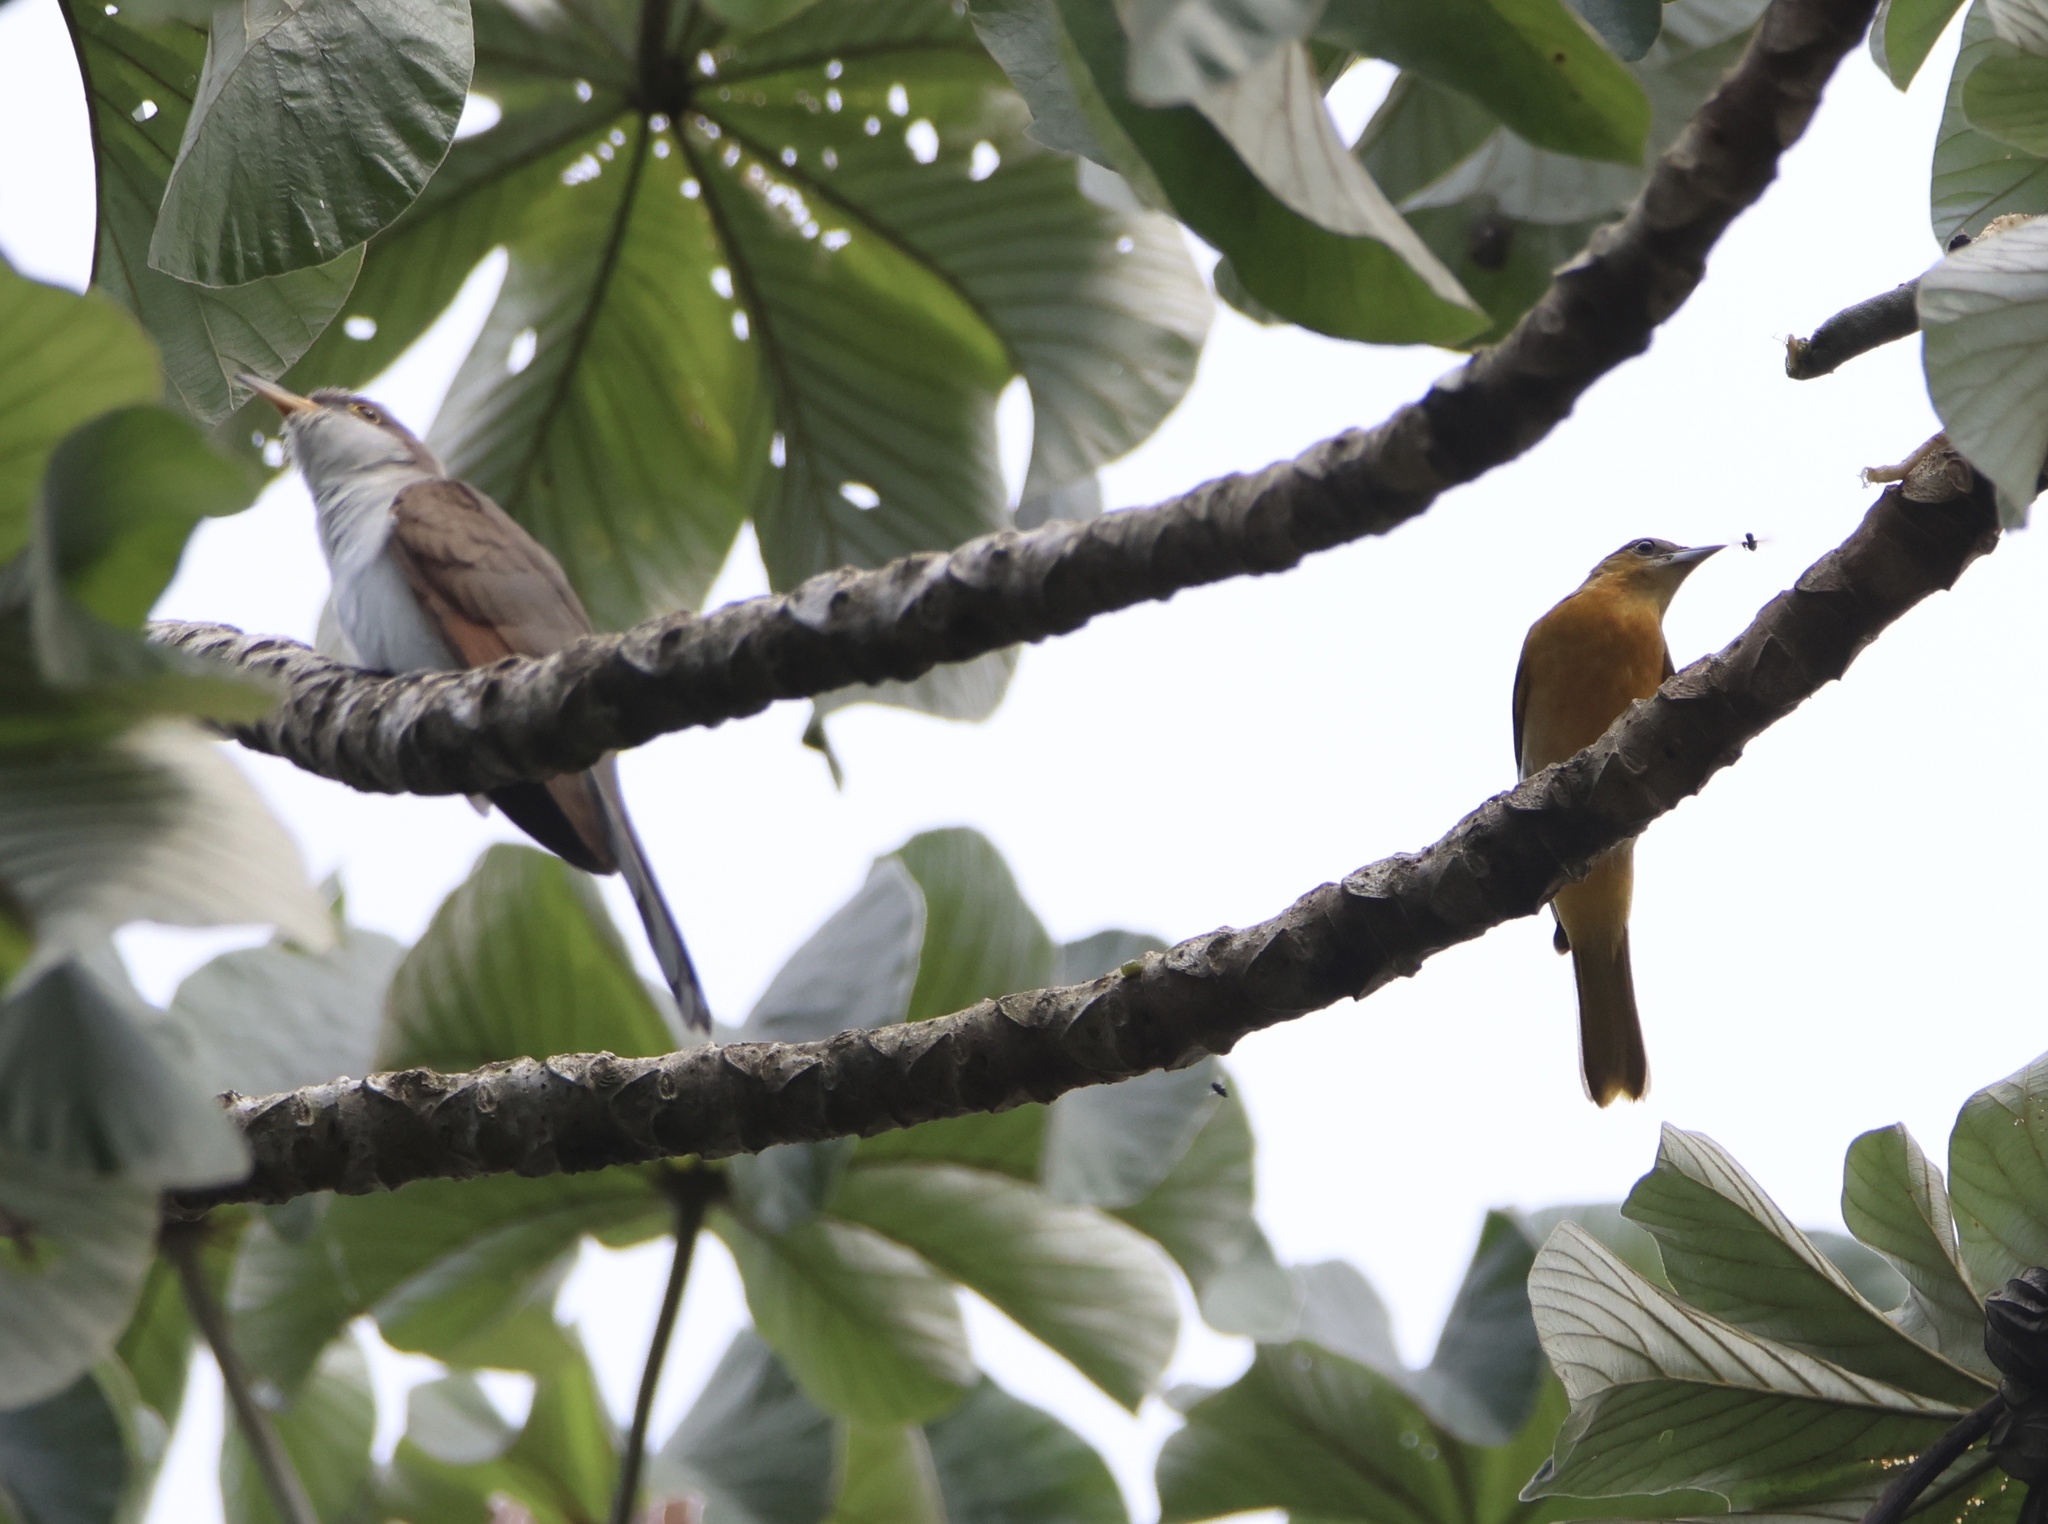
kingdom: Animalia
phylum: Chordata
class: Aves
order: Passeriformes
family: Icteridae
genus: Icterus
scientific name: Icterus galbula
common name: Baltimore oriole
